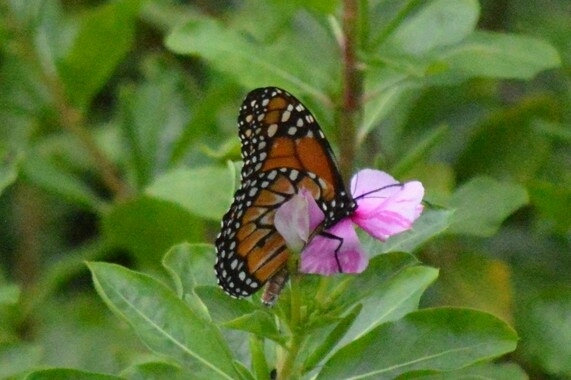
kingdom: Animalia
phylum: Arthropoda
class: Insecta
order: Lepidoptera
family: Nymphalidae
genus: Danaus
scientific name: Danaus erippus
